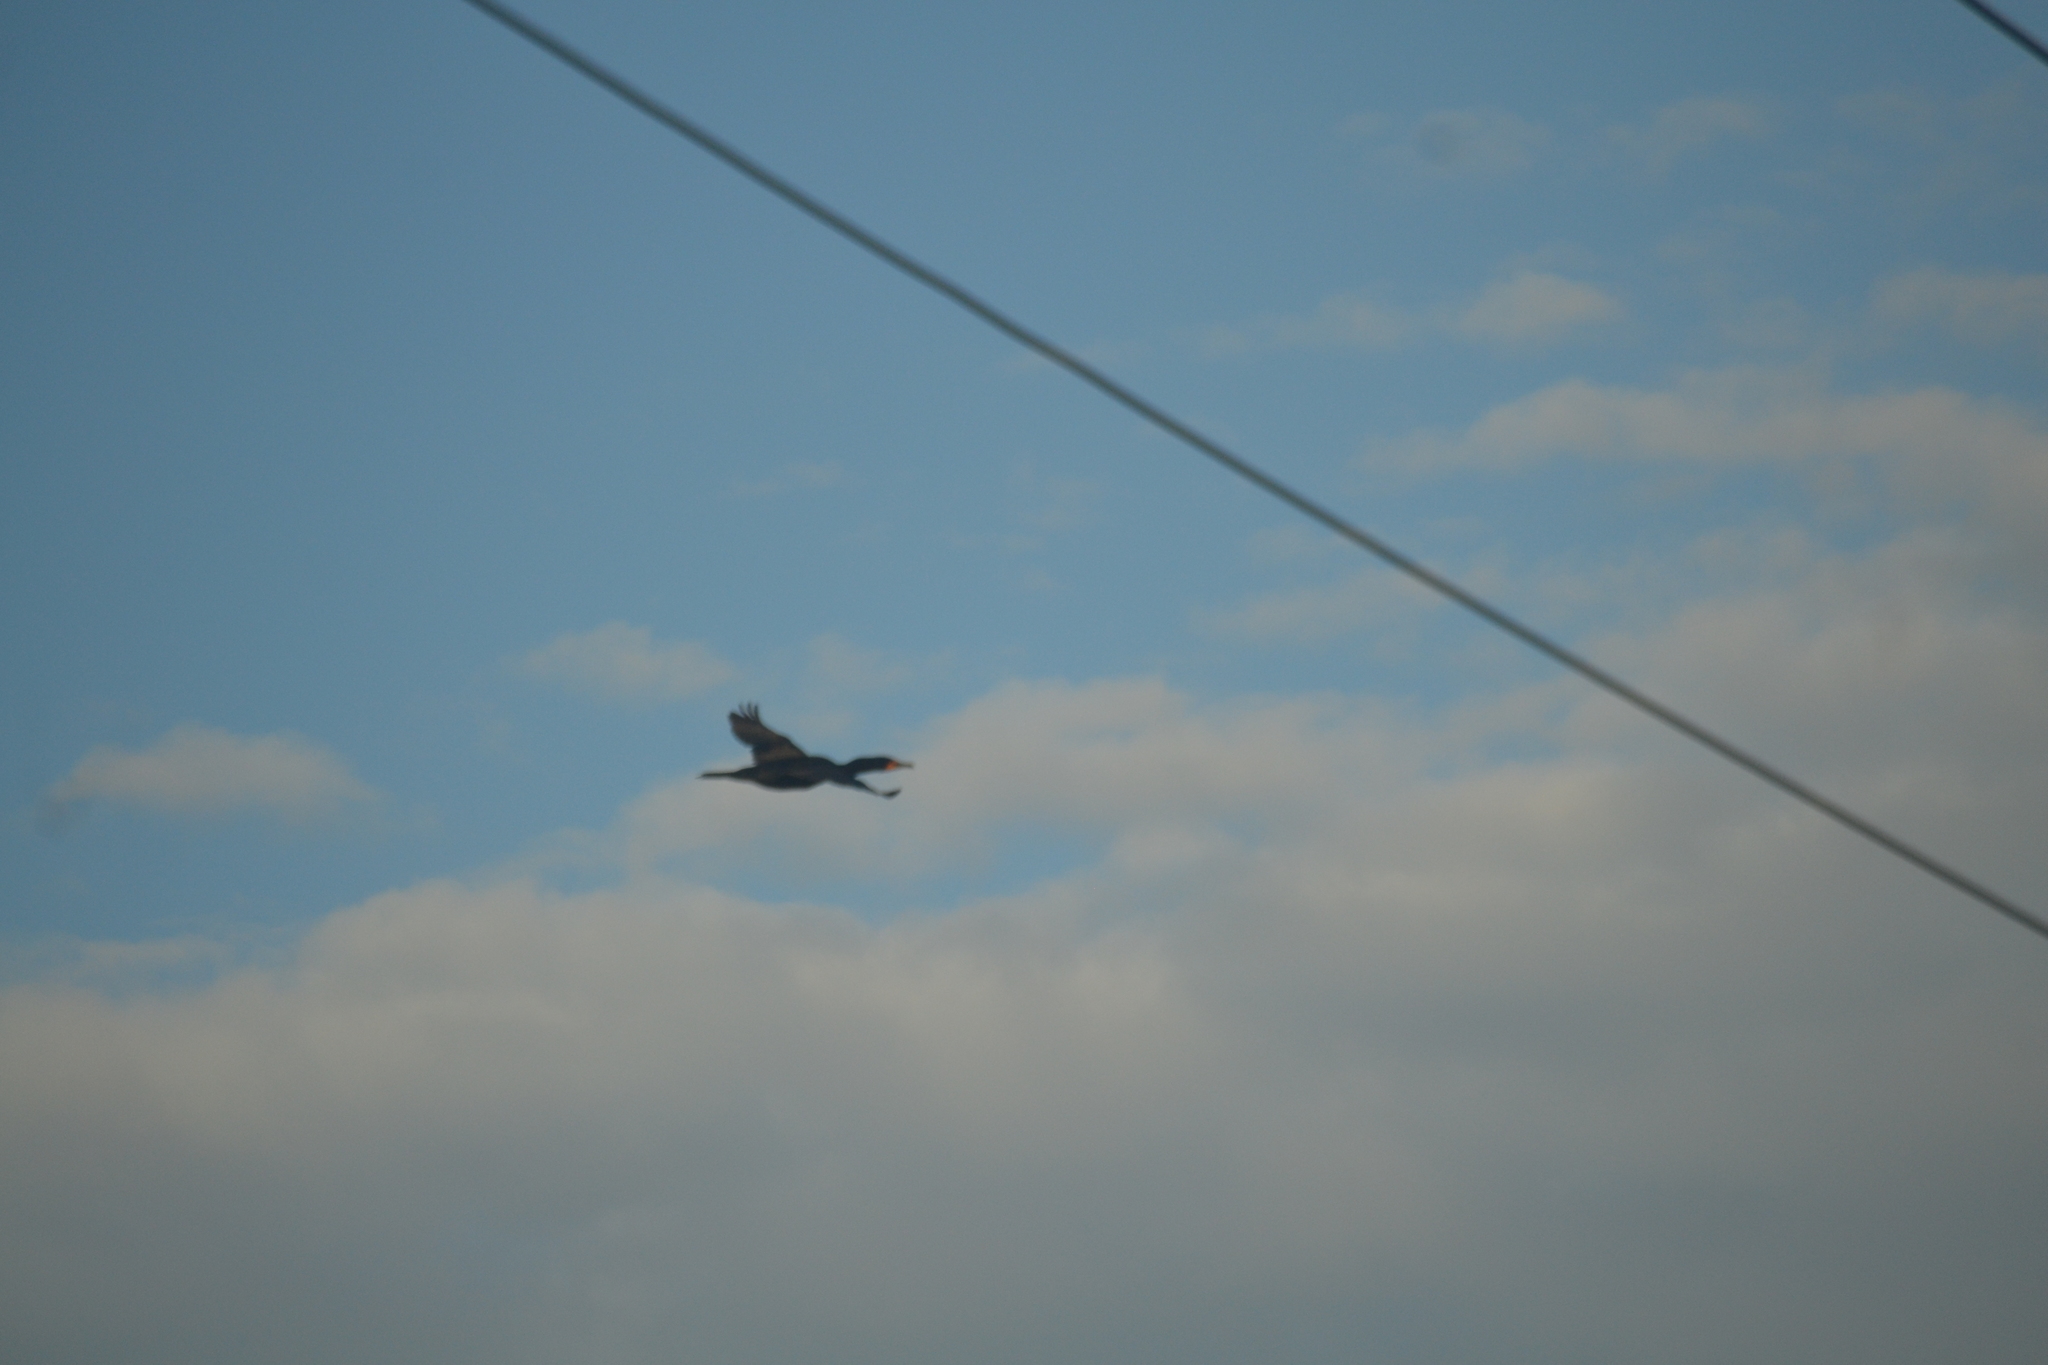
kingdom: Animalia
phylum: Chordata
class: Aves
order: Suliformes
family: Phalacrocoracidae
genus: Phalacrocorax
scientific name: Phalacrocorax auritus
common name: Double-crested cormorant
